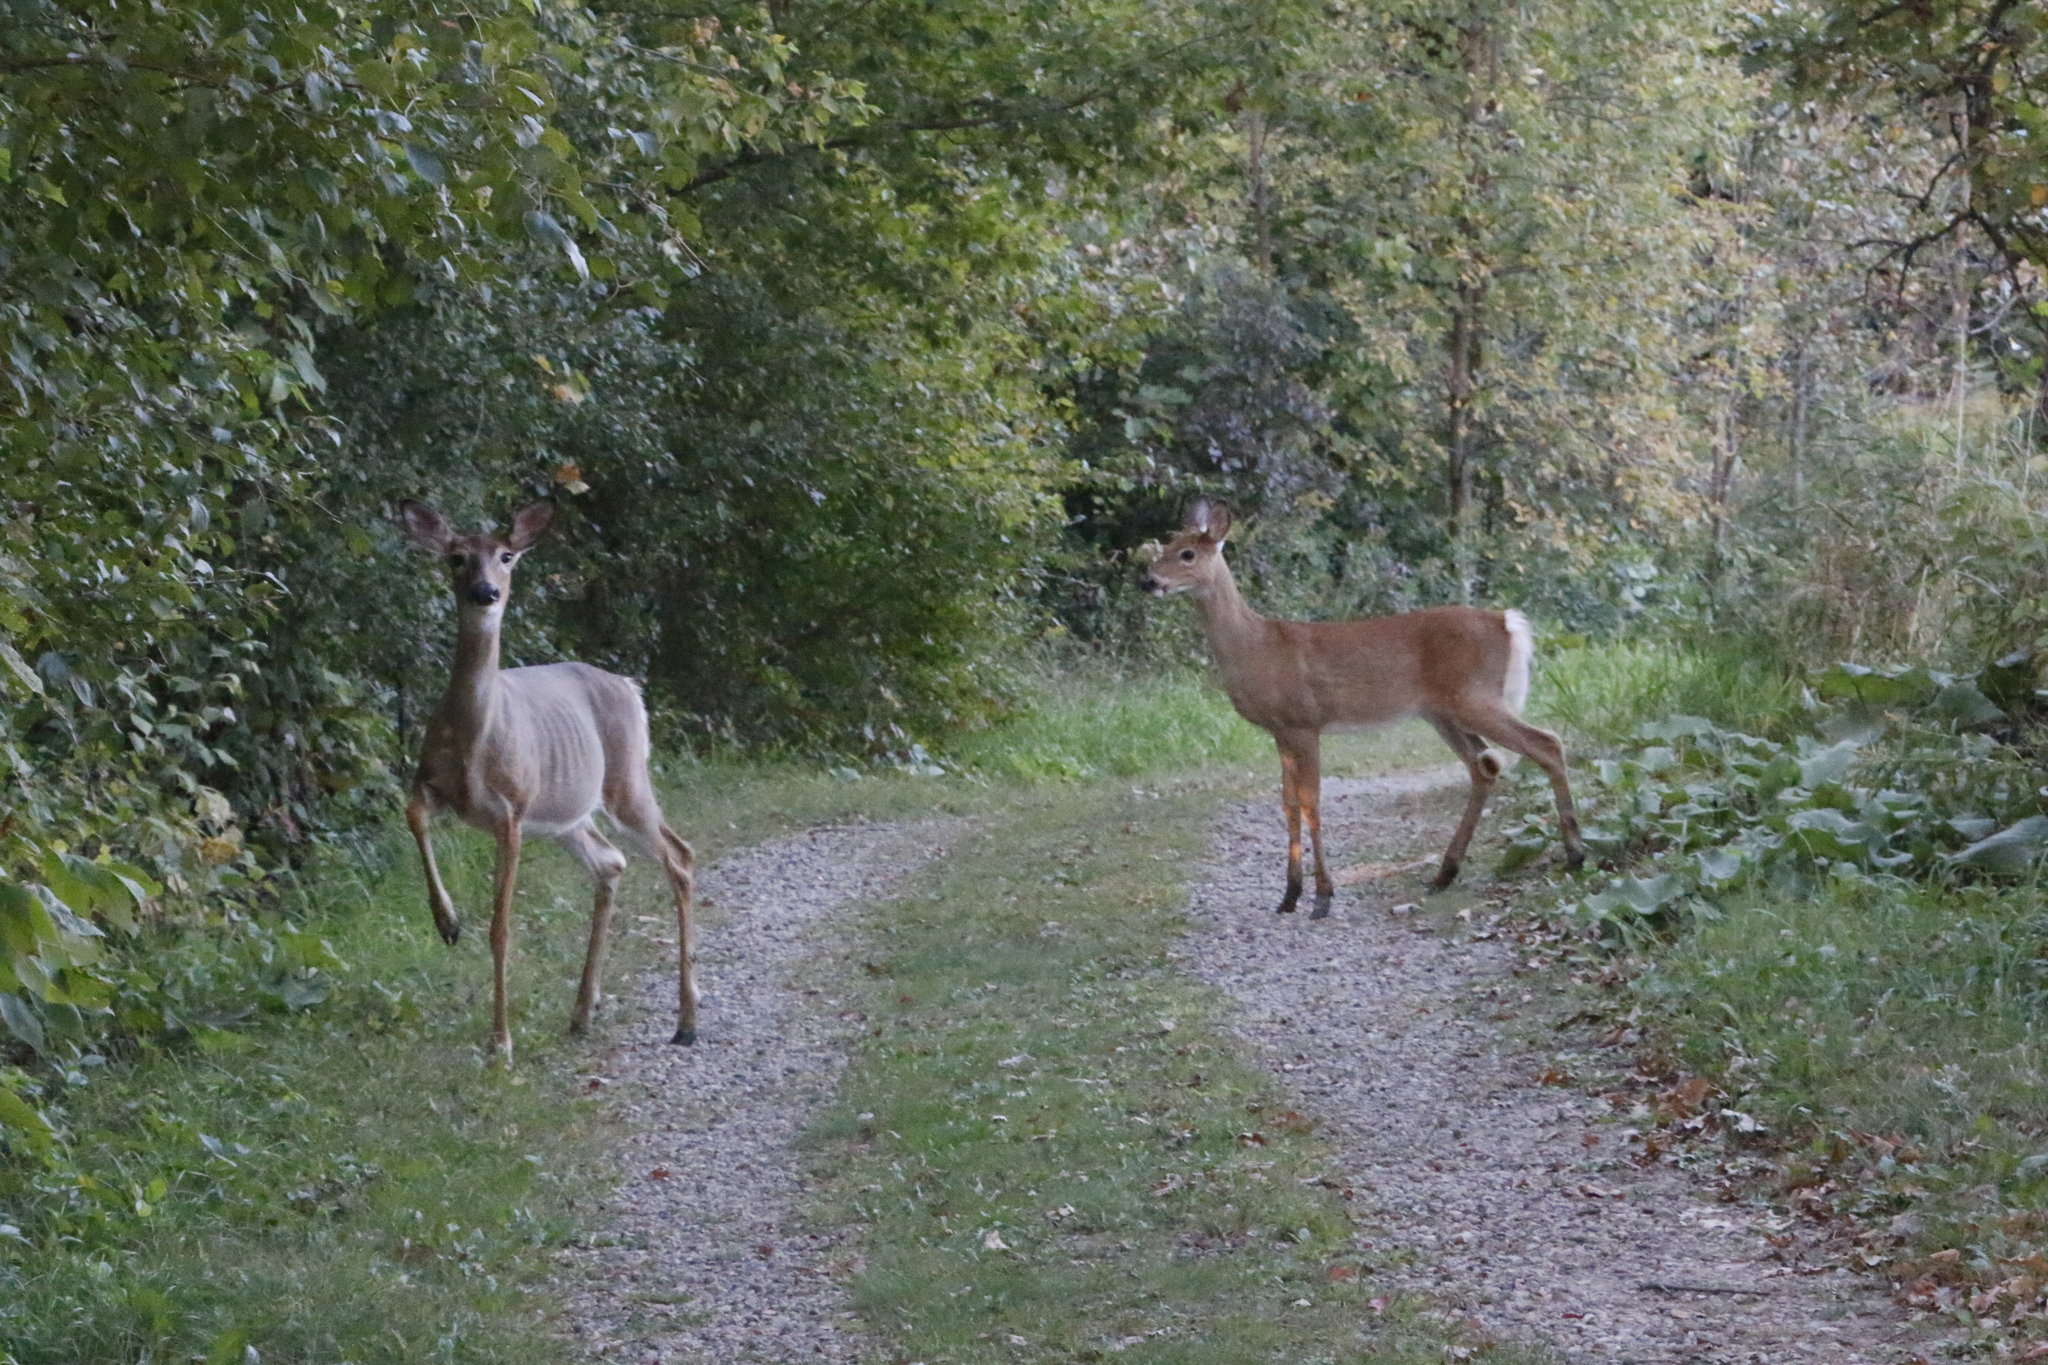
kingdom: Animalia
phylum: Chordata
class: Mammalia
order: Artiodactyla
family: Cervidae
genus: Odocoileus
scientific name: Odocoileus virginianus
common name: White-tailed deer
